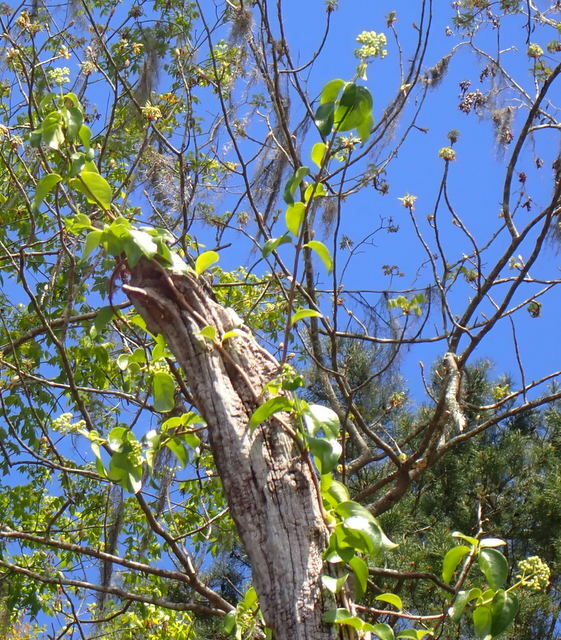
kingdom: Plantae
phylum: Tracheophyta
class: Magnoliopsida
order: Cornales
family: Hydrangeaceae
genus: Hydrangea
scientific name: Hydrangea barbara
